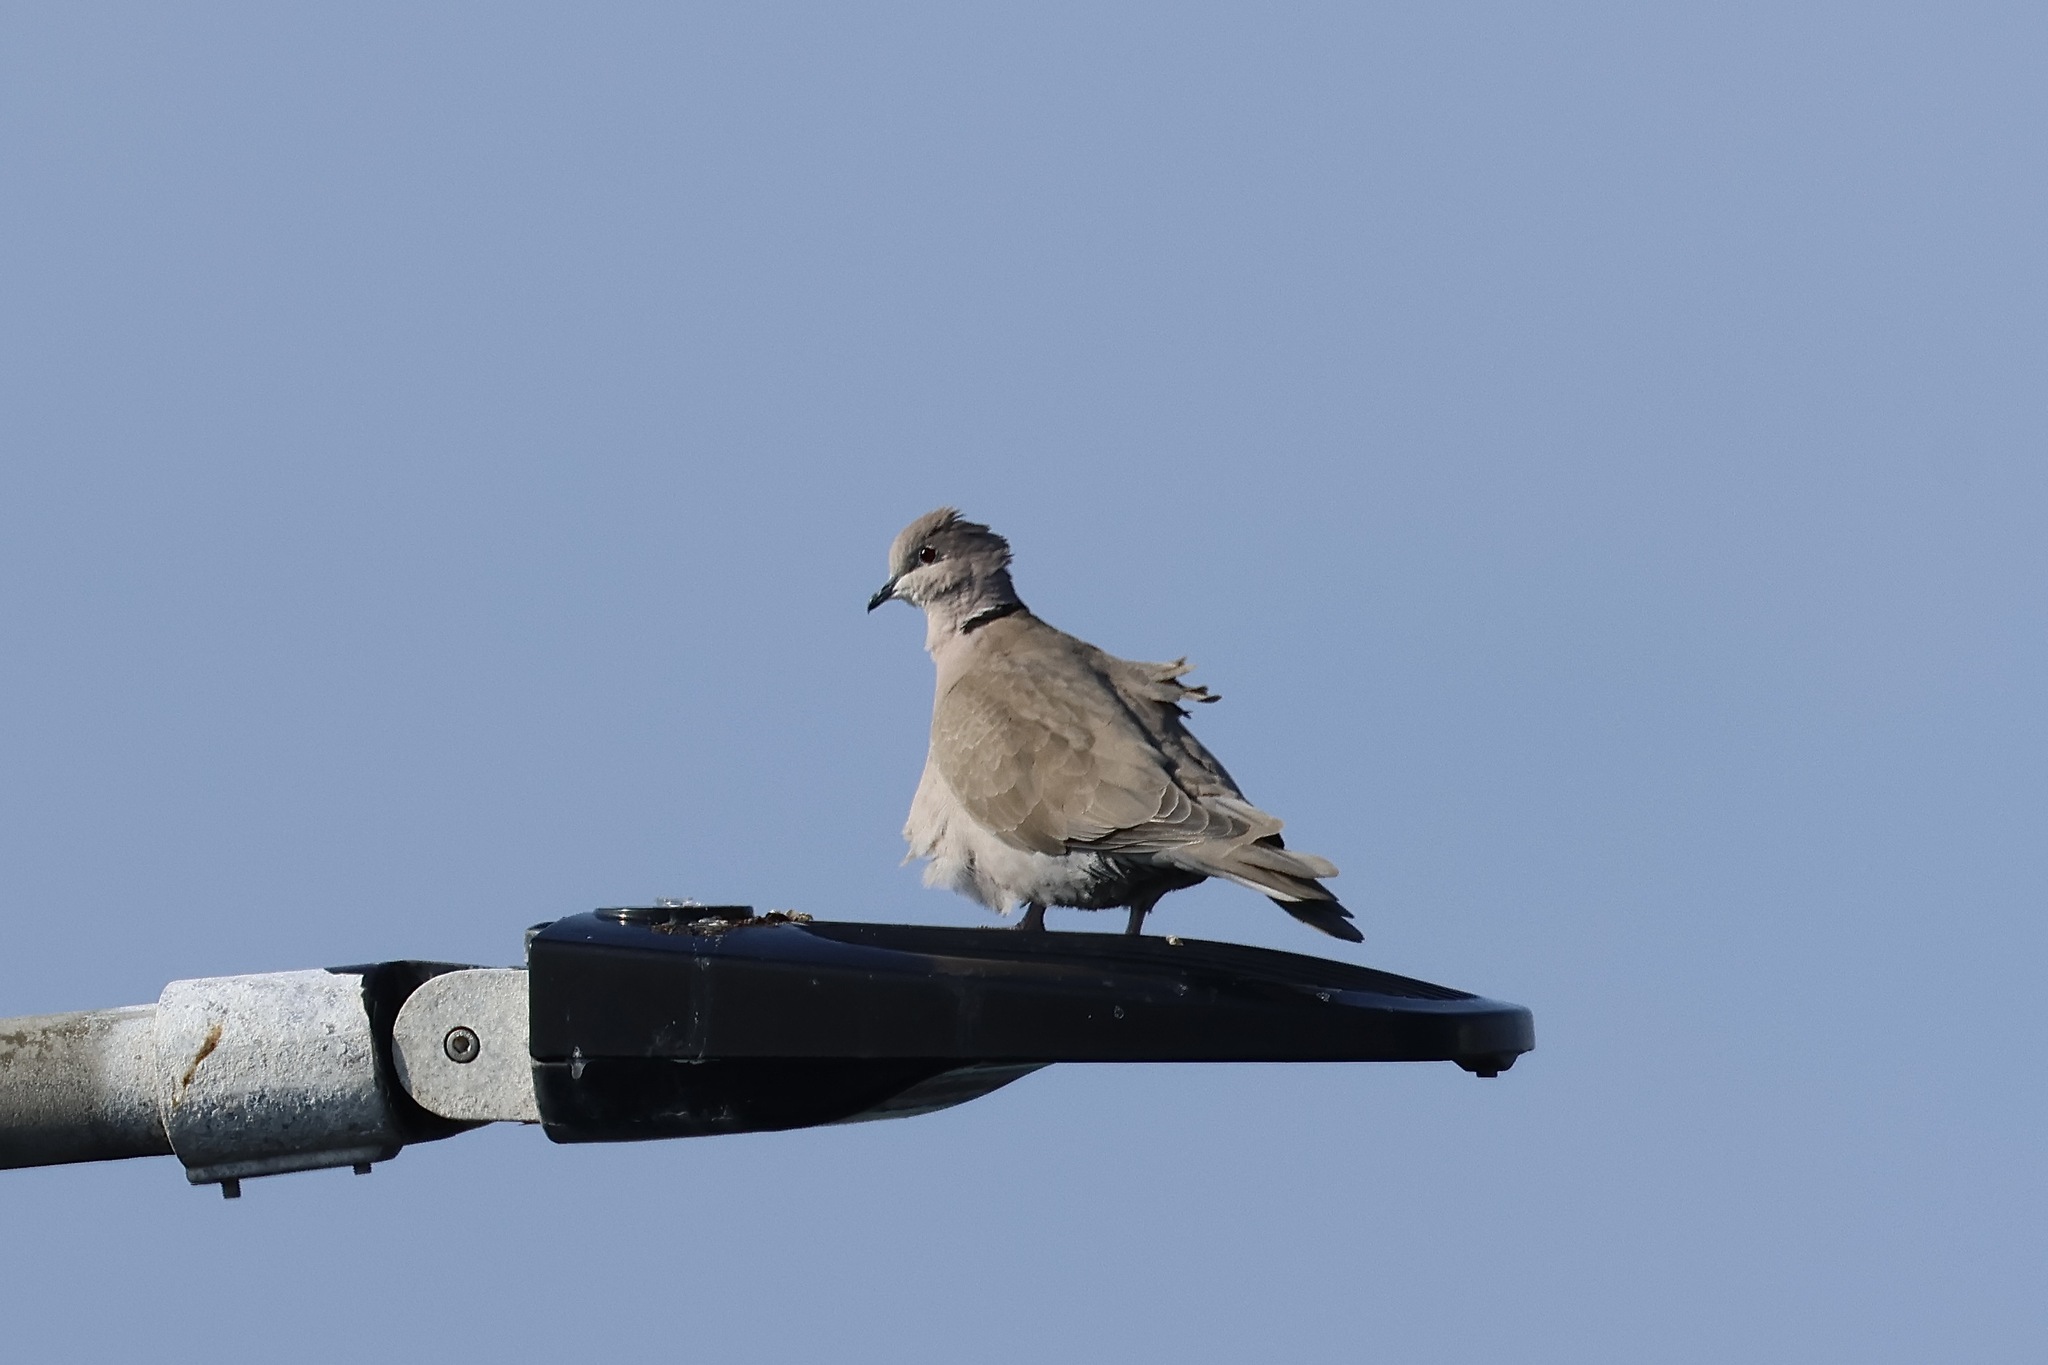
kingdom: Animalia
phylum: Chordata
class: Aves
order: Columbiformes
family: Columbidae
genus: Streptopelia
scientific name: Streptopelia decaocto
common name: Eurasian collared dove
